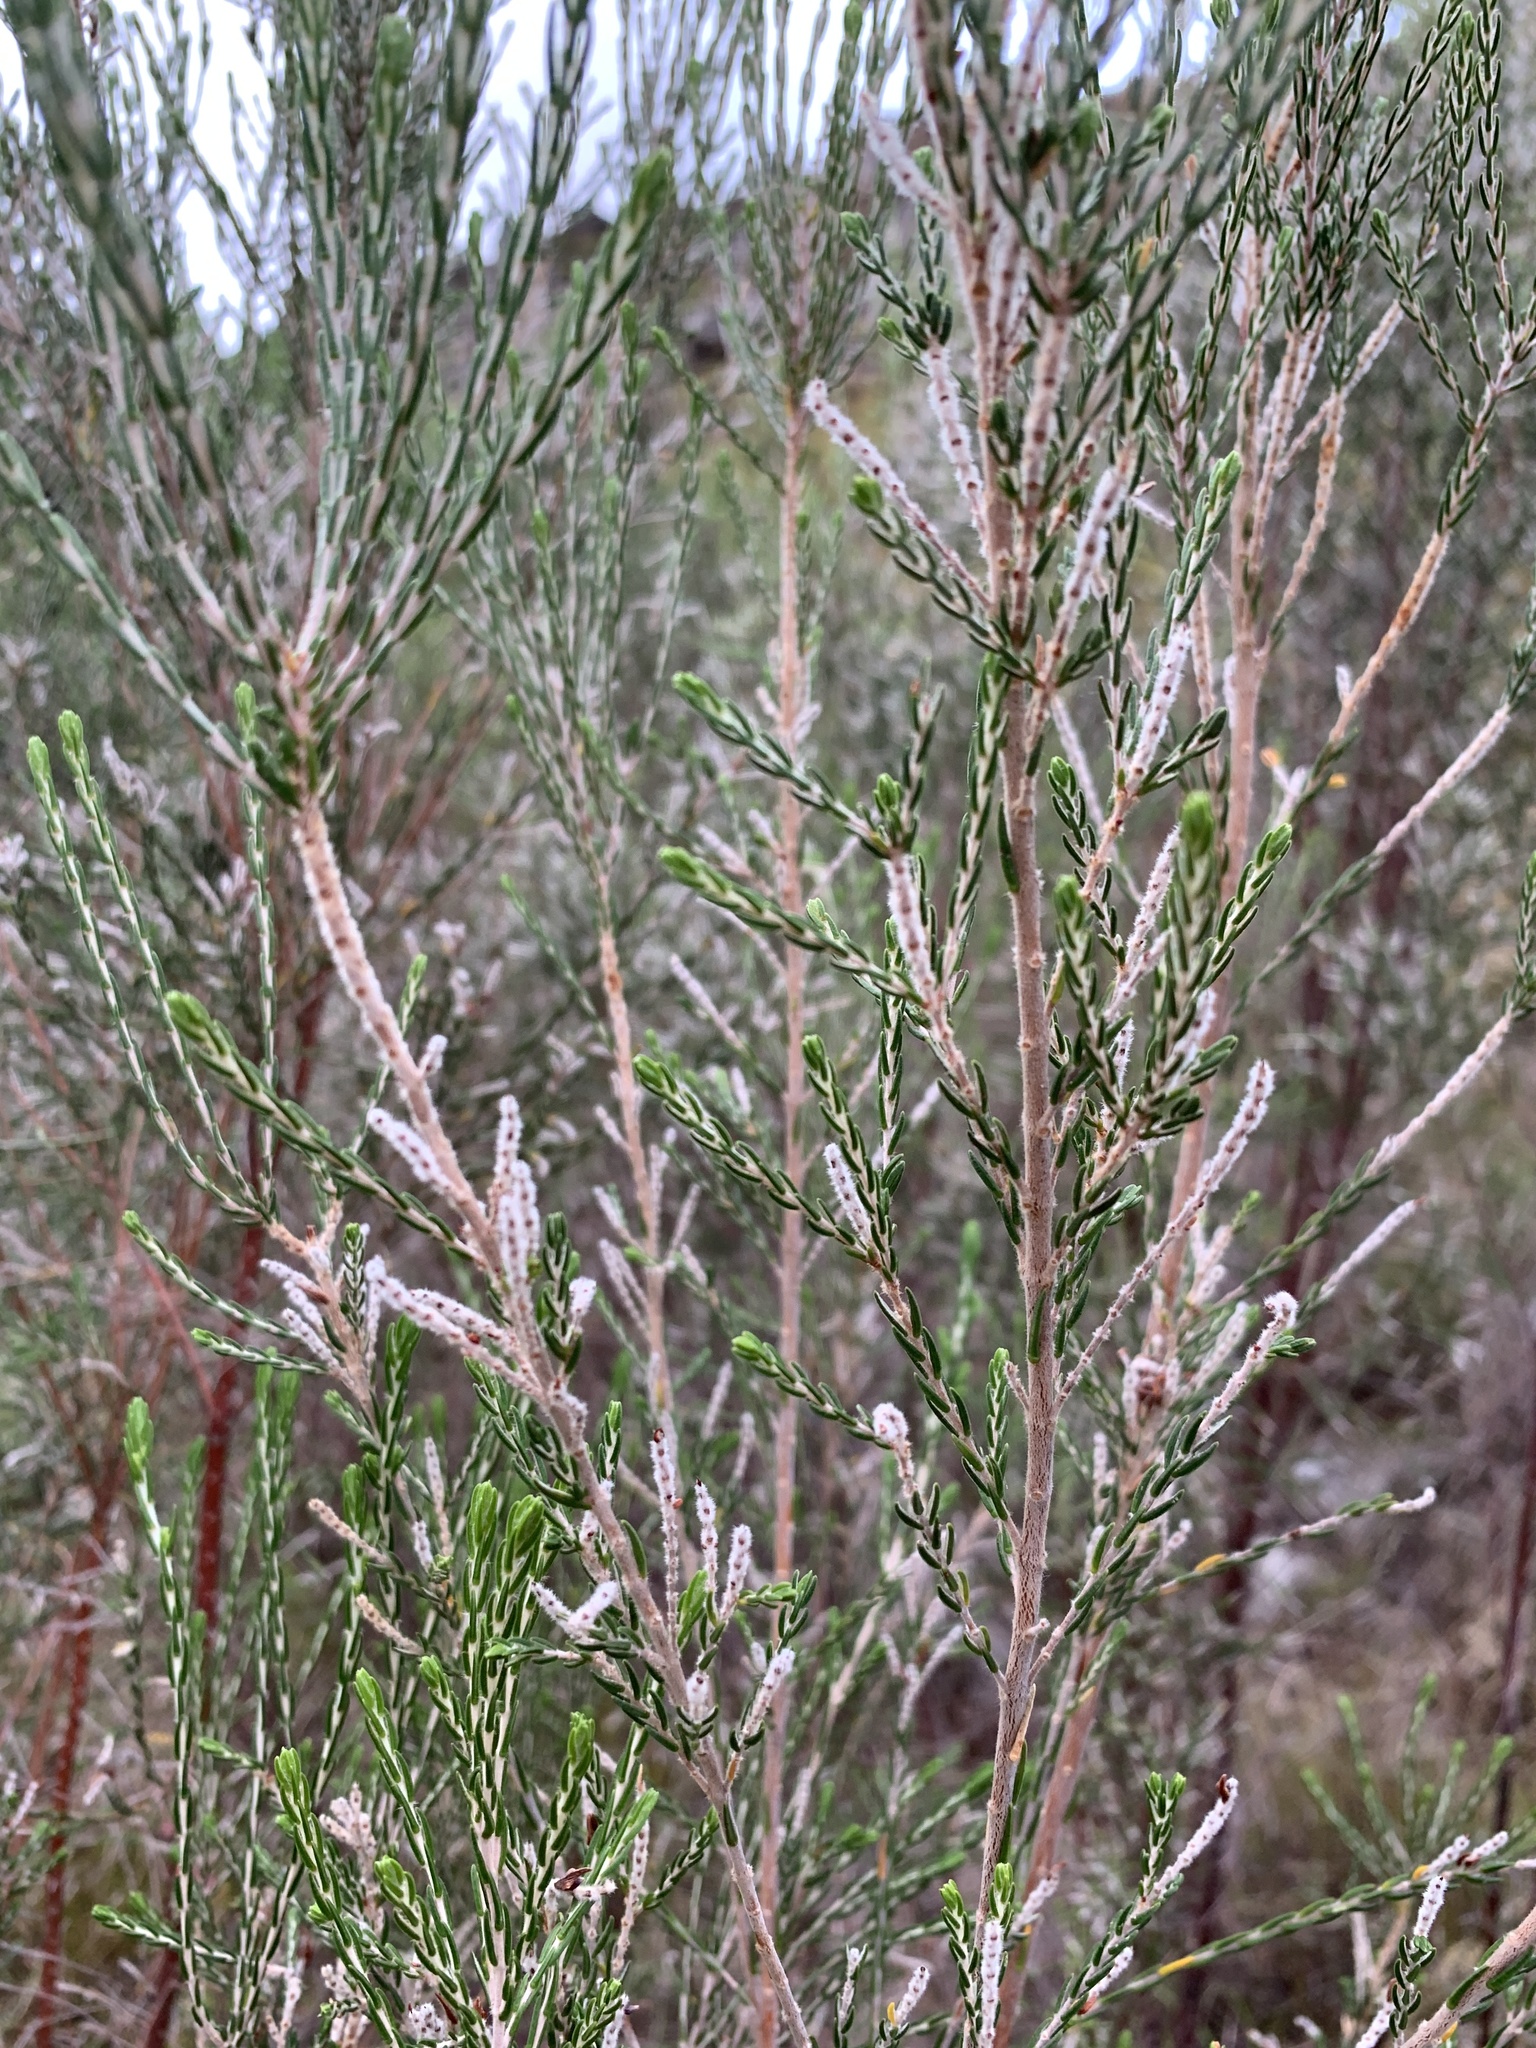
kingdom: Plantae
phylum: Tracheophyta
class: Magnoliopsida
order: Malvales
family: Thymelaeaceae
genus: Passerina
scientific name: Passerina corymbosa
